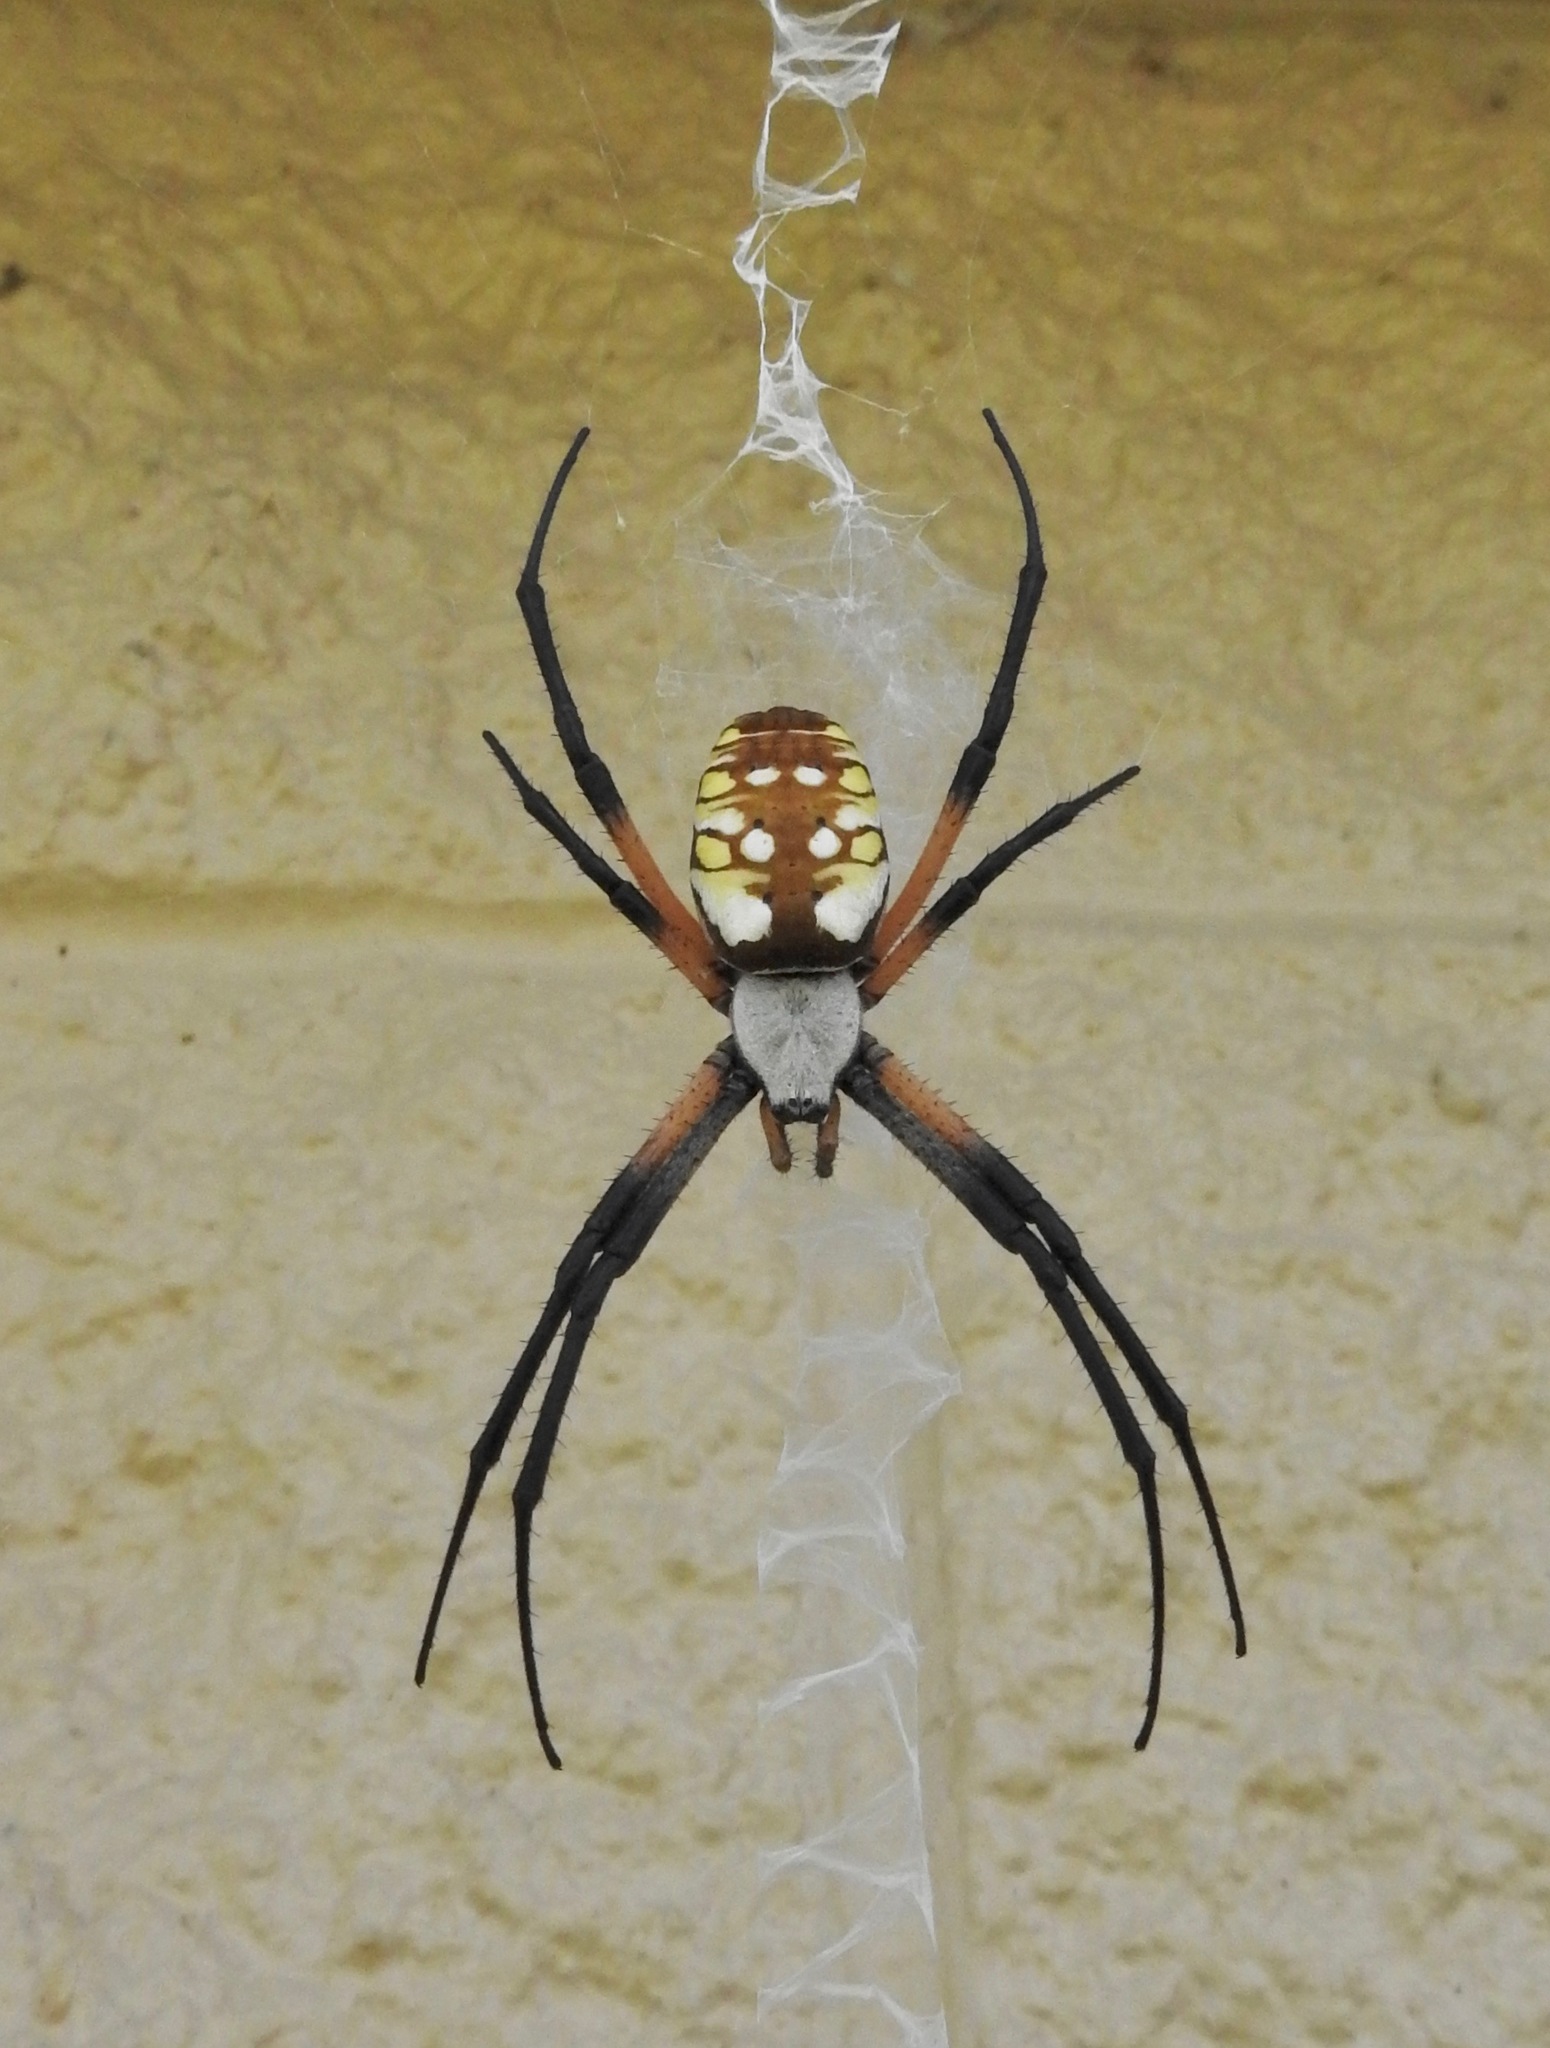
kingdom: Animalia
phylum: Arthropoda
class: Arachnida
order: Araneae
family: Araneidae
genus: Argiope
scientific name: Argiope aurantia
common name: Orb weavers
